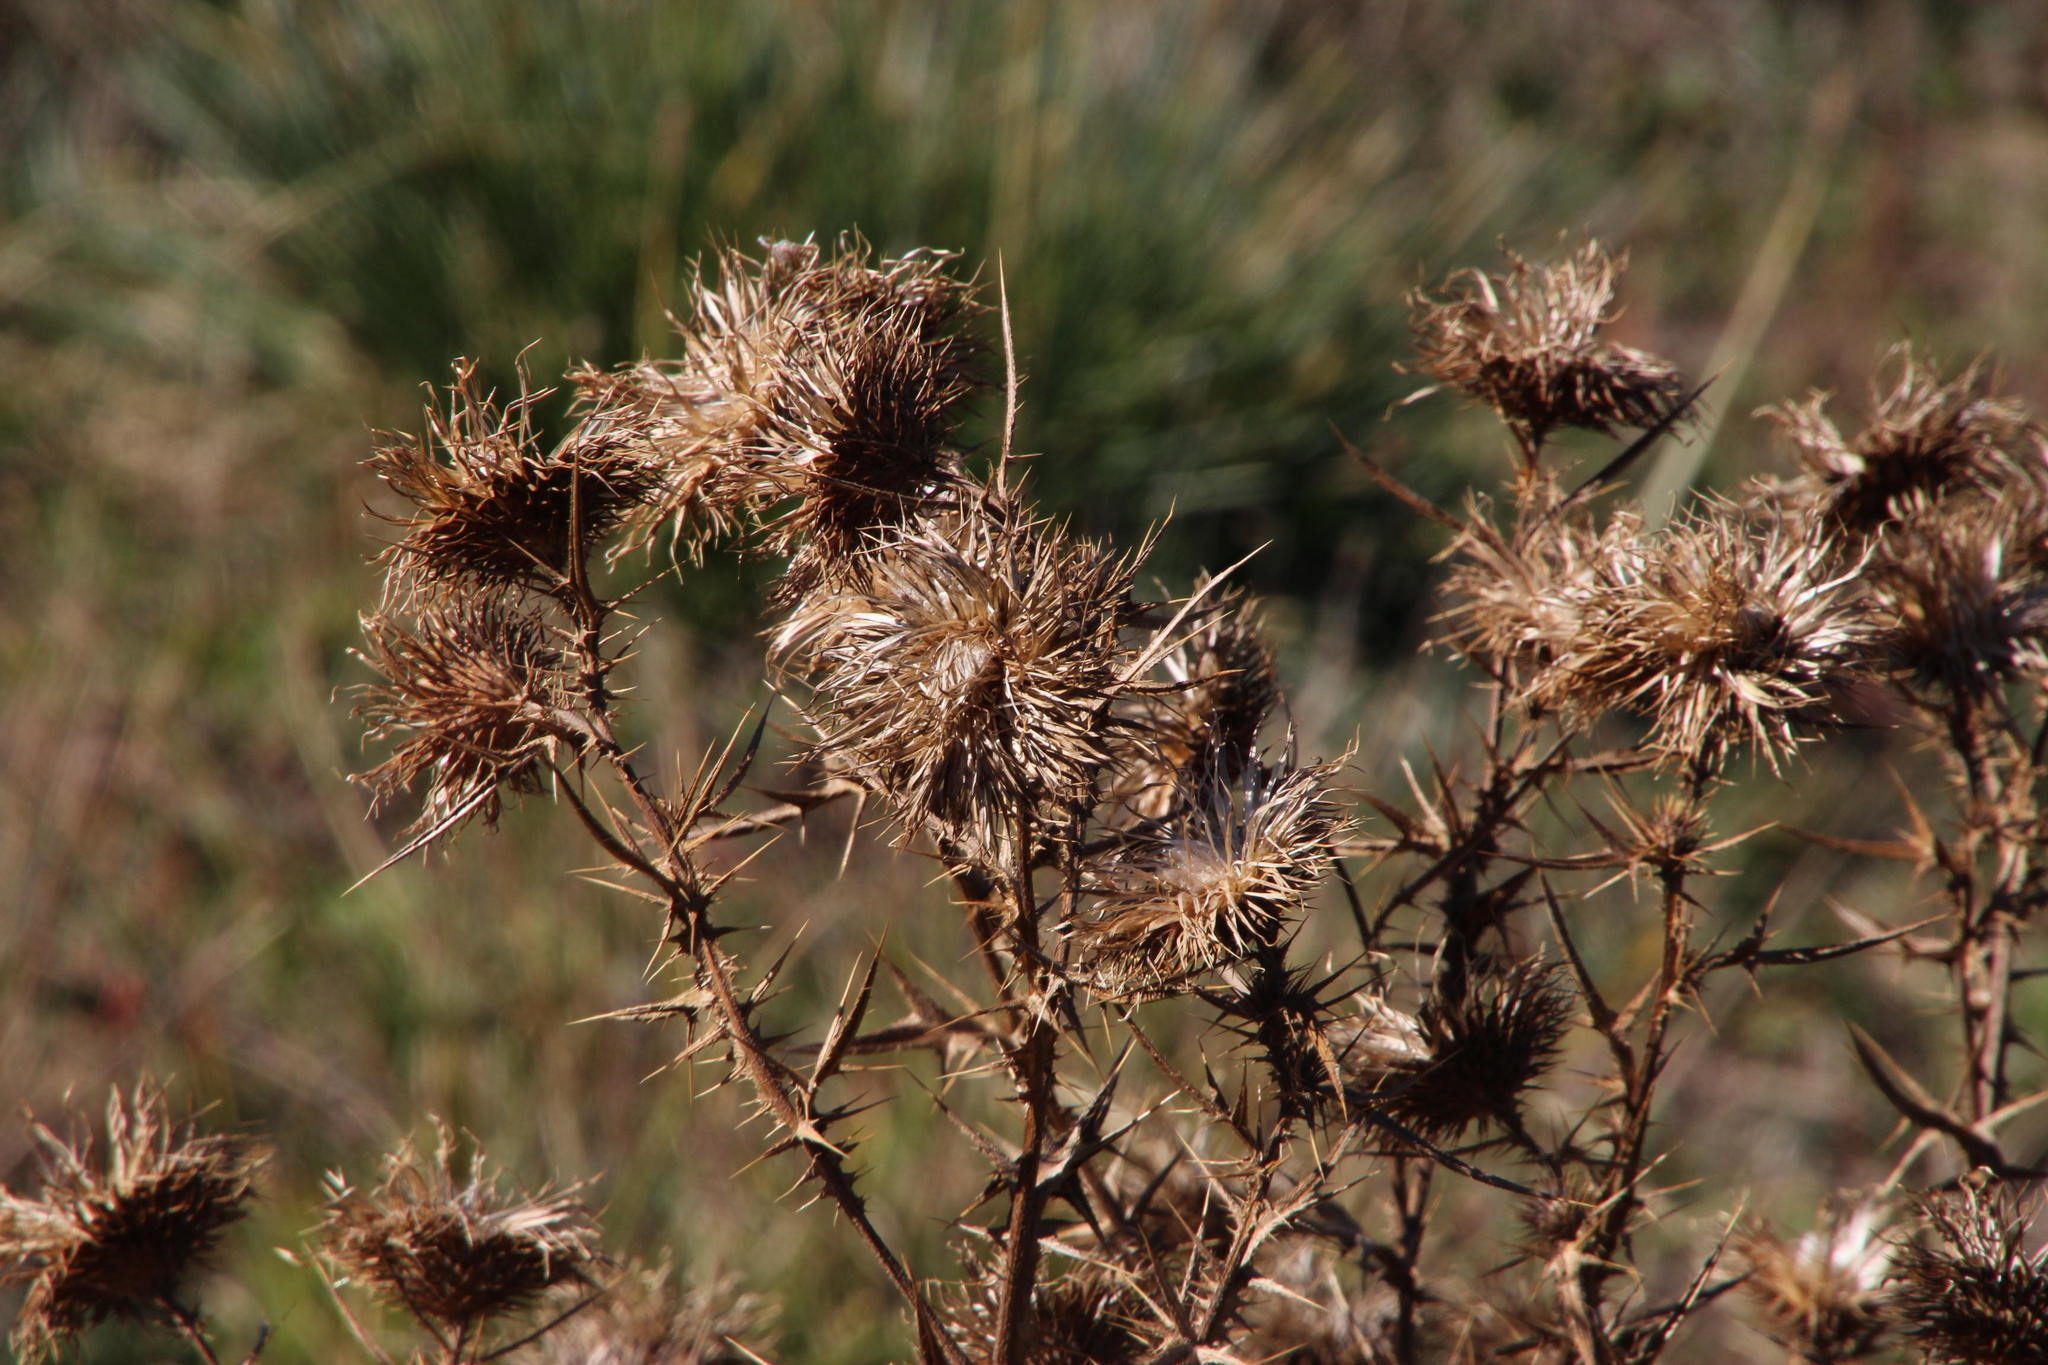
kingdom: Plantae
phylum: Tracheophyta
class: Magnoliopsida
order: Asterales
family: Asteraceae
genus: Cirsium
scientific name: Cirsium vulgare
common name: Bull thistle
